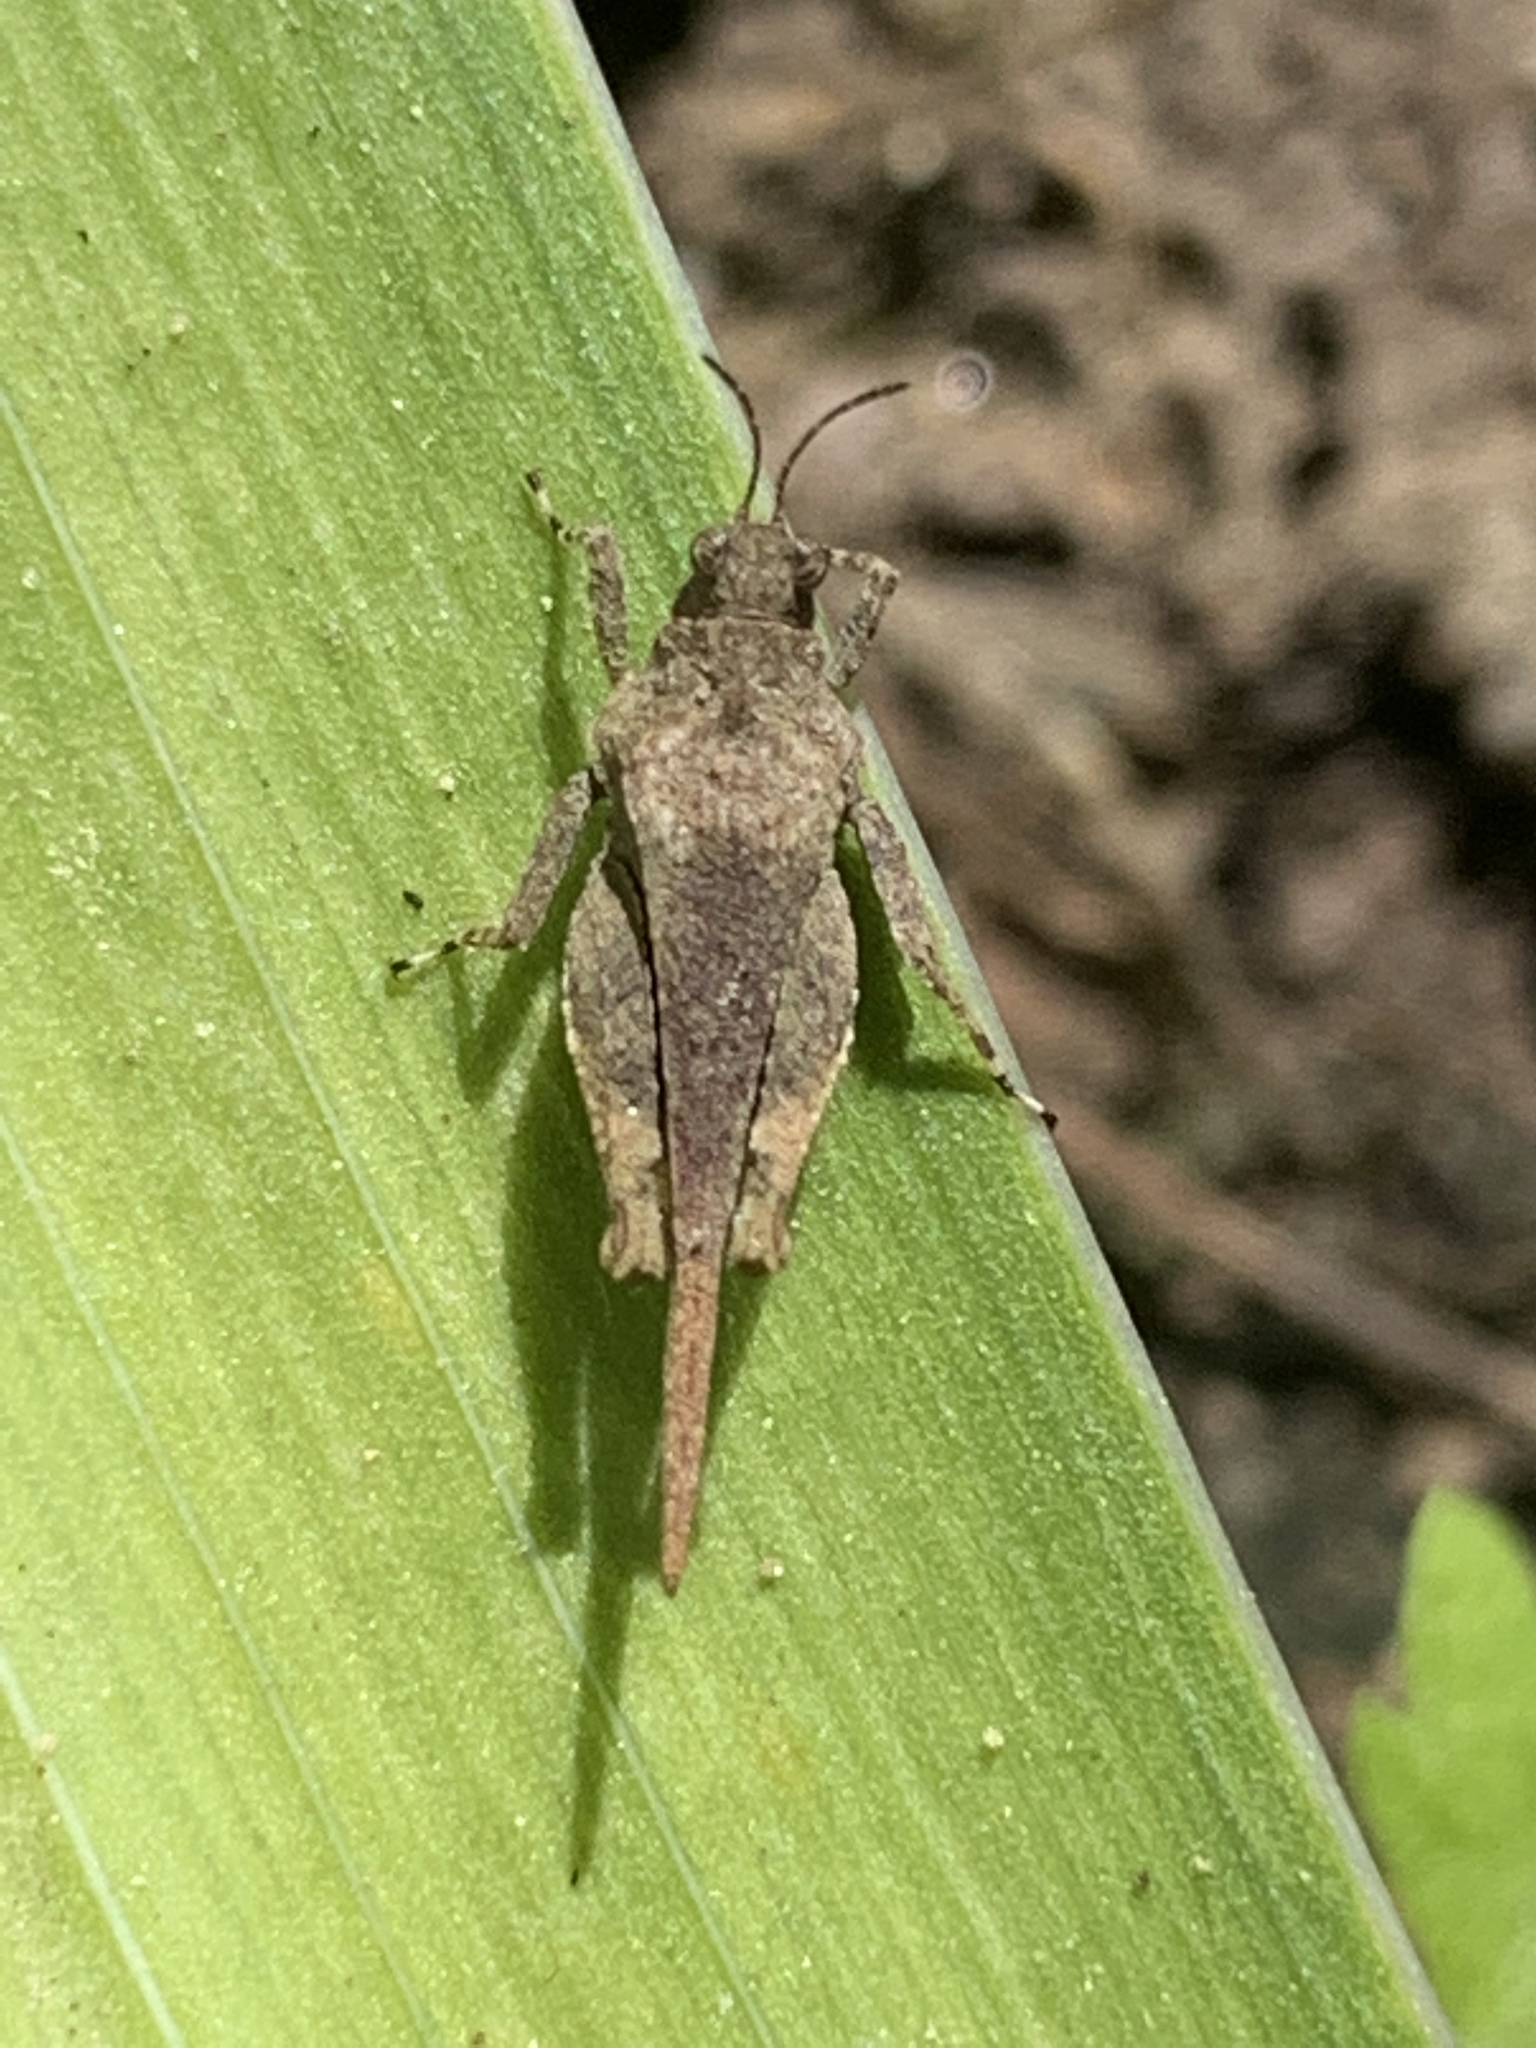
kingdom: Animalia
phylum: Arthropoda
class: Insecta
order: Orthoptera
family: Tetrigidae
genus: Tetrix
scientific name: Tetrix arenosa
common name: Ornate pygmy grasshopper
